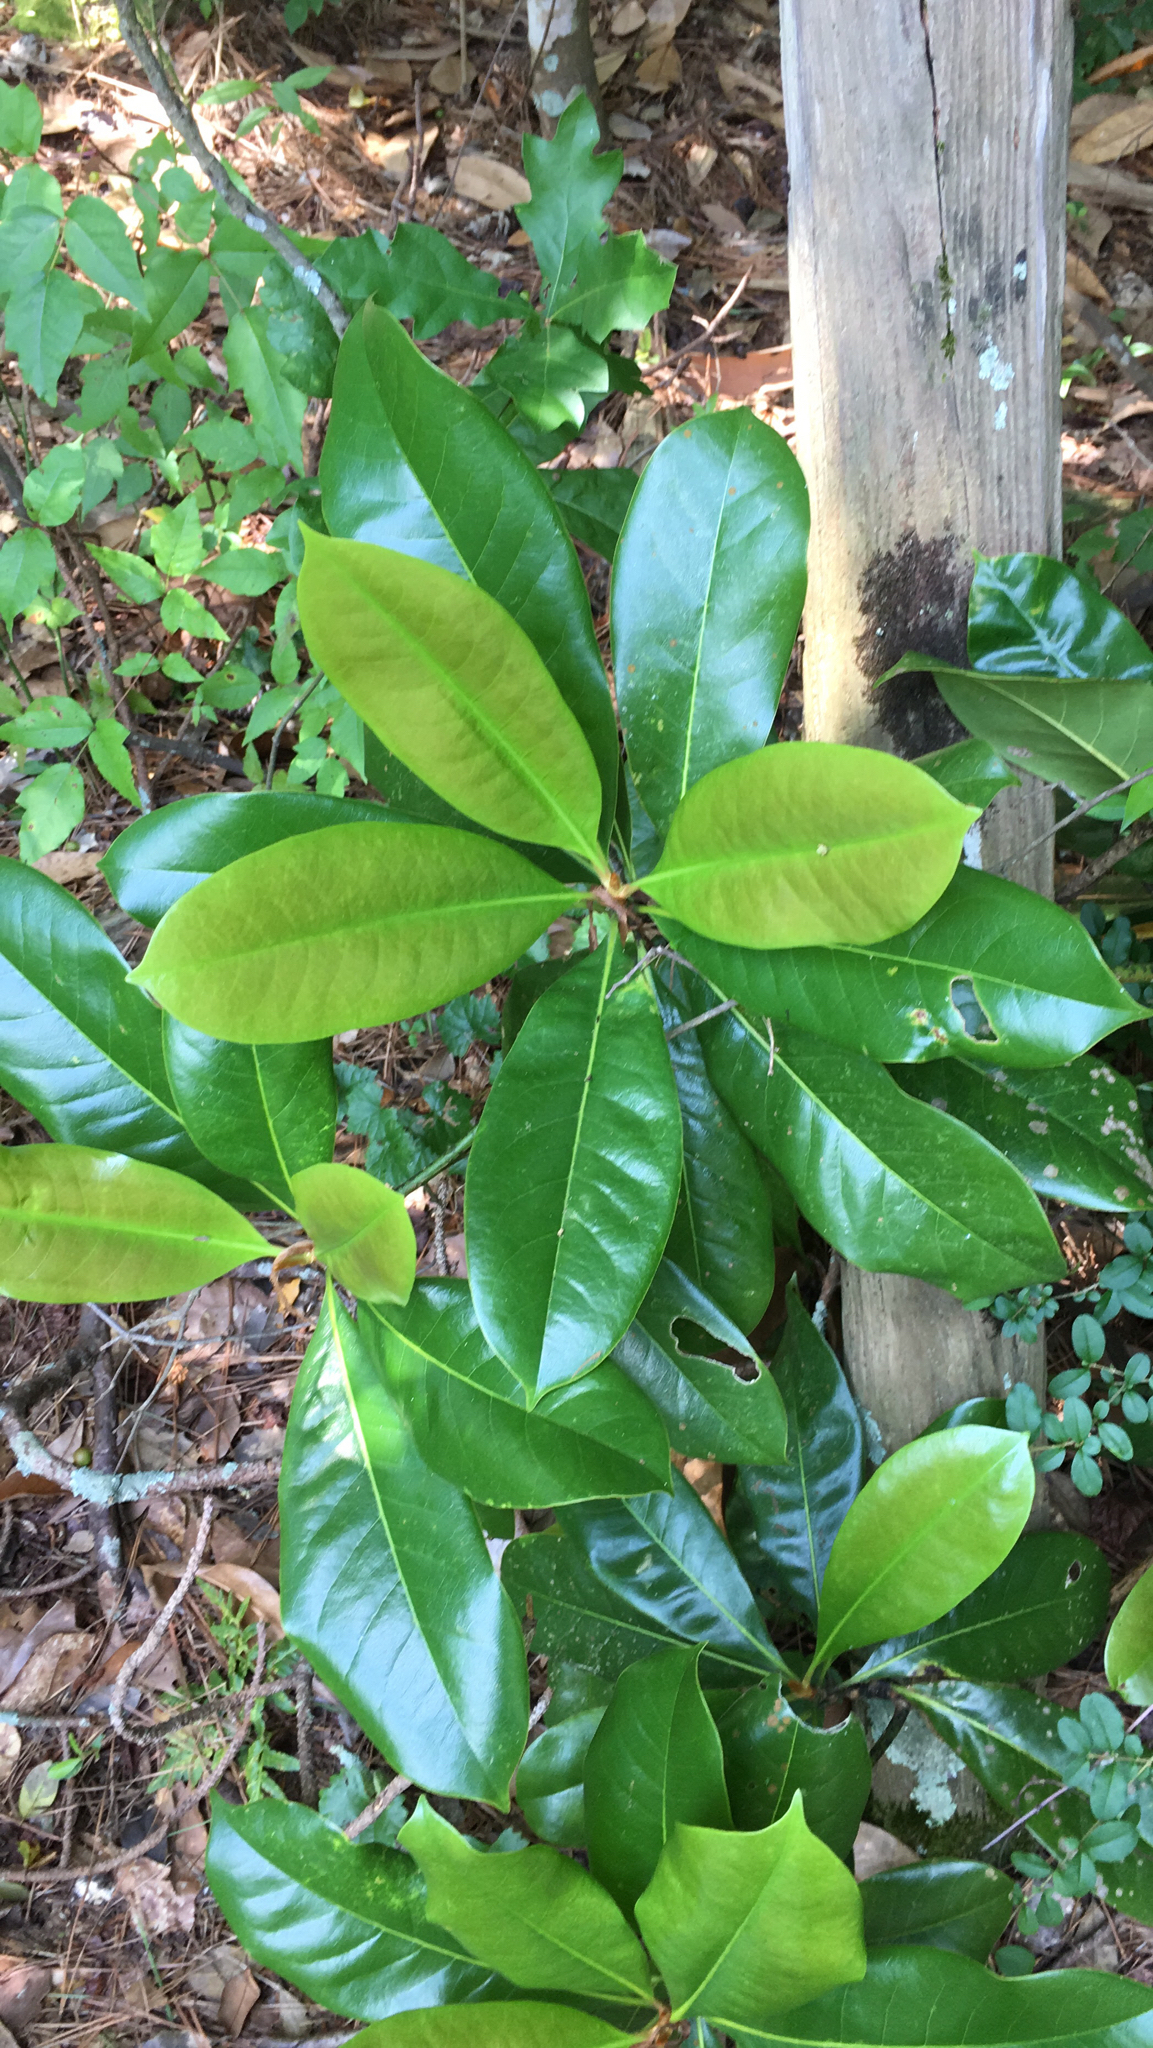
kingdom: Plantae
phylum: Tracheophyta
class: Magnoliopsida
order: Magnoliales
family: Magnoliaceae
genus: Magnolia
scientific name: Magnolia grandiflora
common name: Southern magnolia
